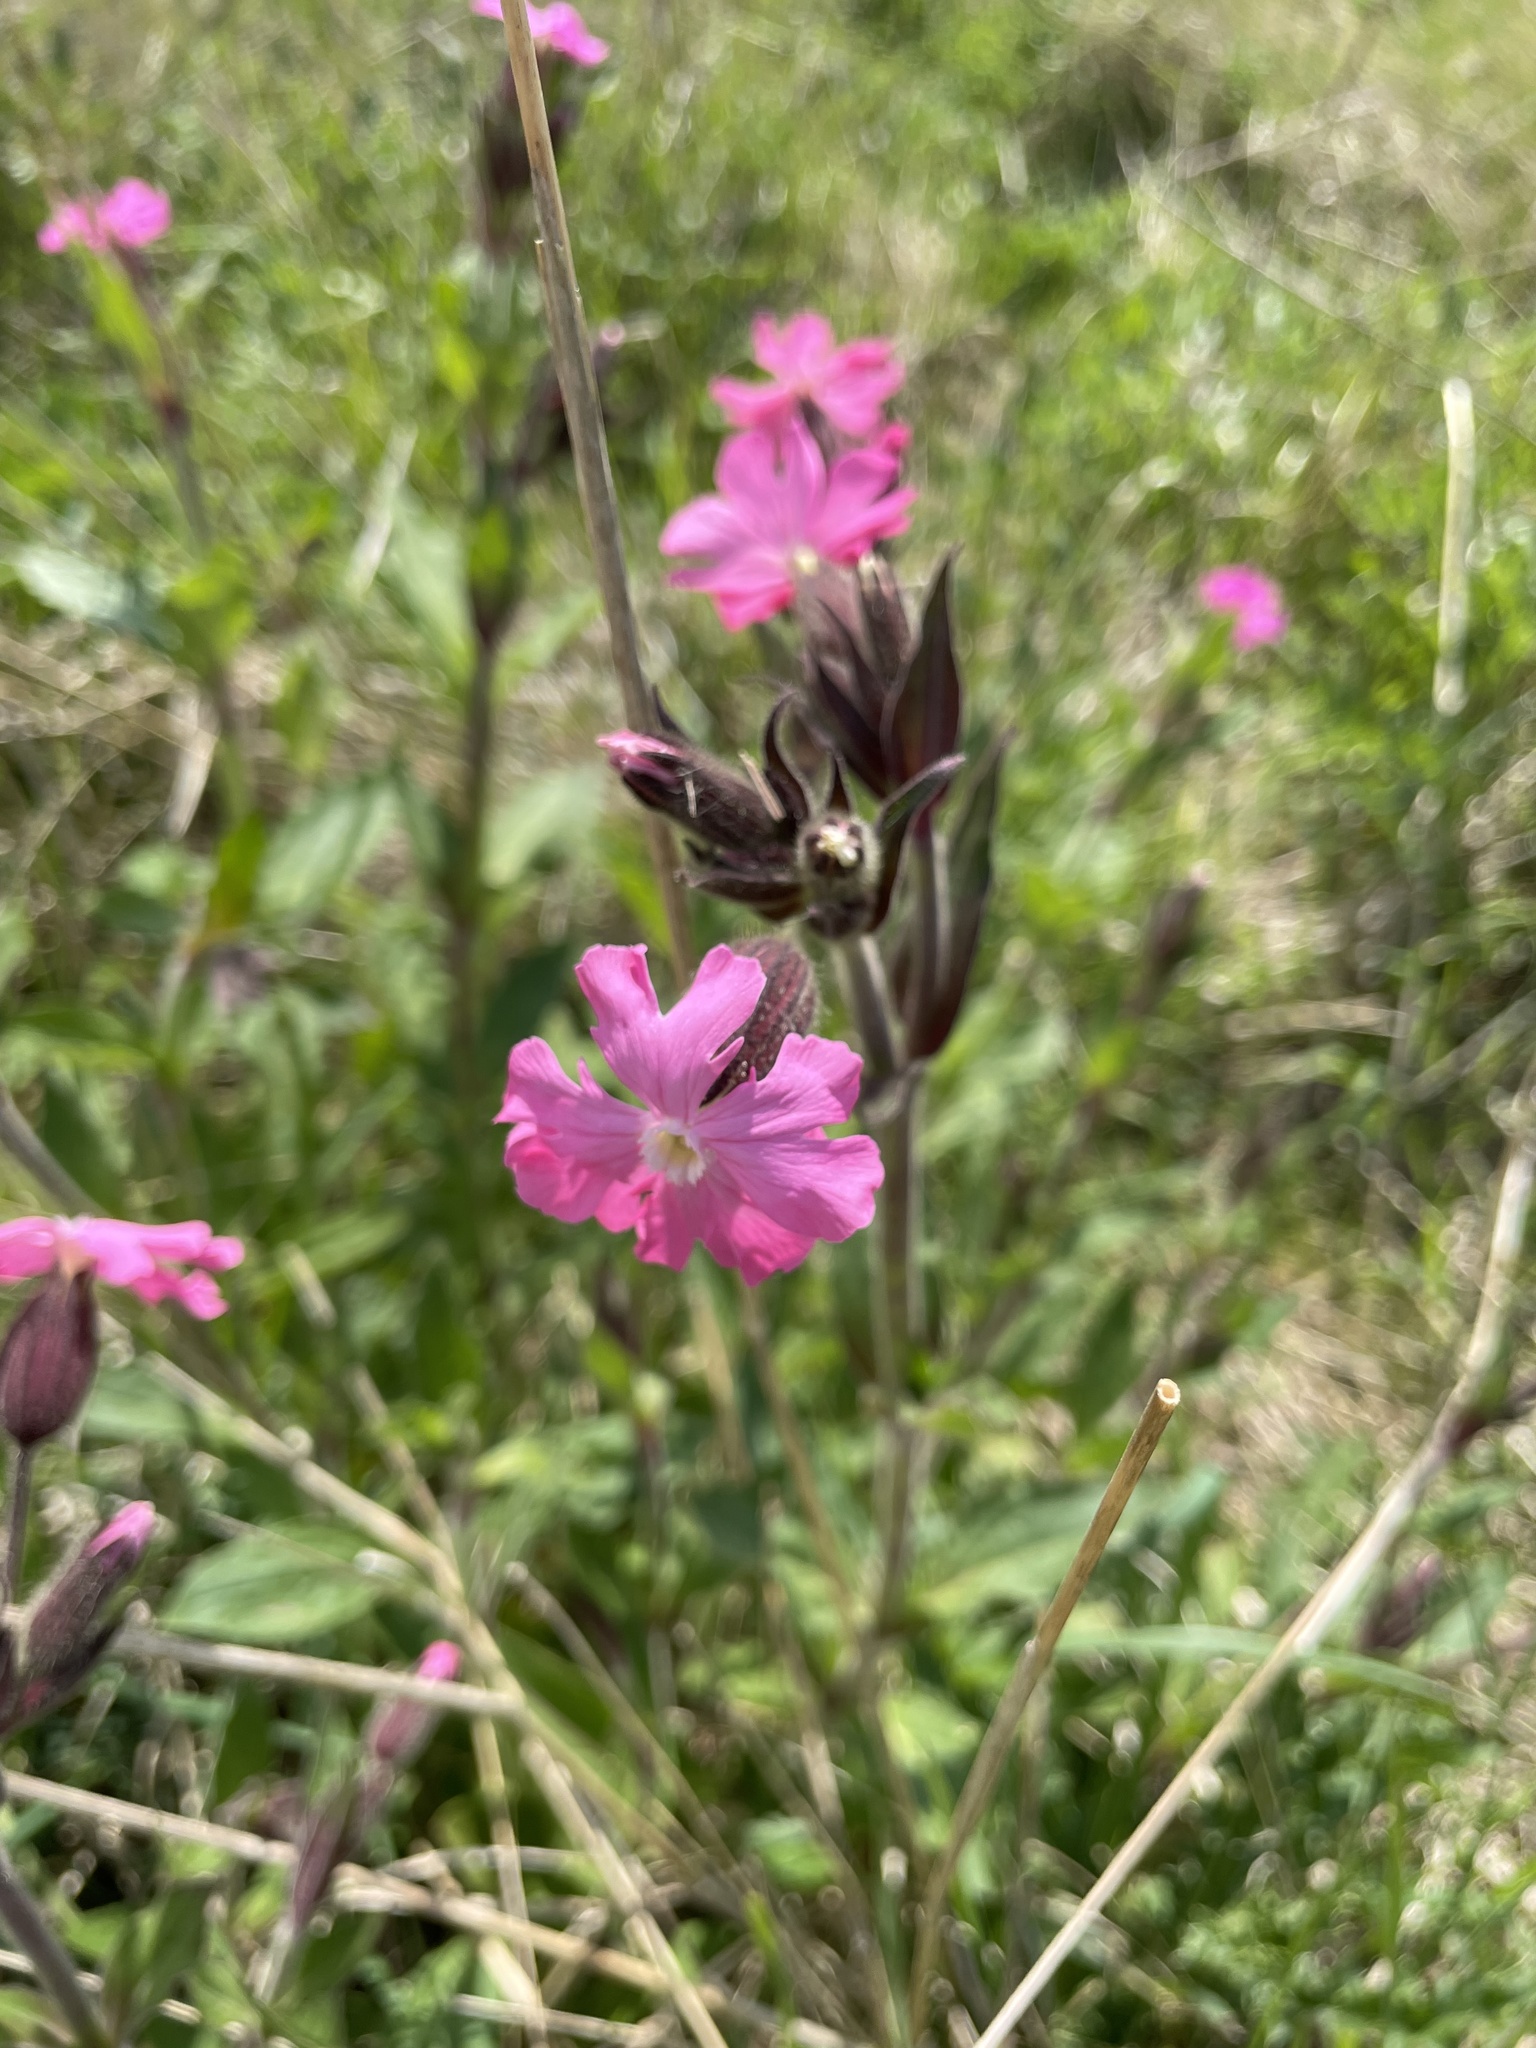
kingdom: Plantae
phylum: Tracheophyta
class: Magnoliopsida
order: Caryophyllales
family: Caryophyllaceae
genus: Silene
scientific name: Silene dioica
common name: Red campion
